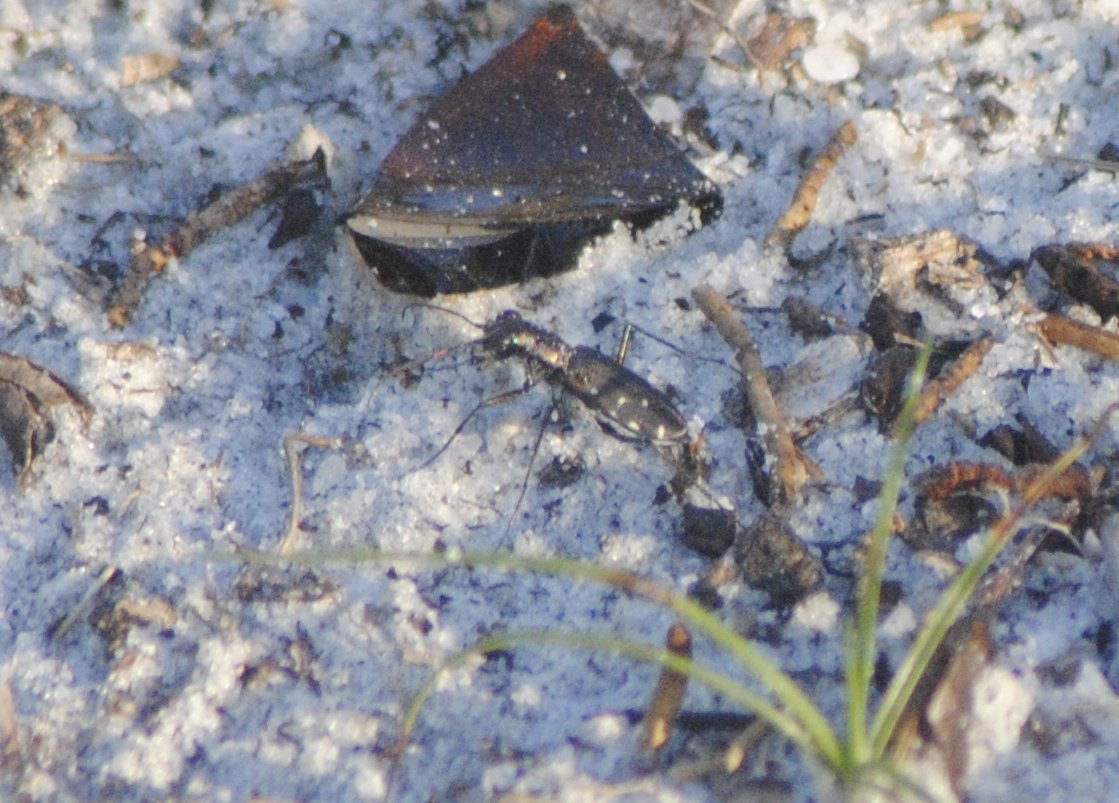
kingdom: Animalia
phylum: Arthropoda
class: Insecta
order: Coleoptera
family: Carabidae
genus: Cicindela
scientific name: Cicindela punctulata
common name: Punctured tiger beetle
